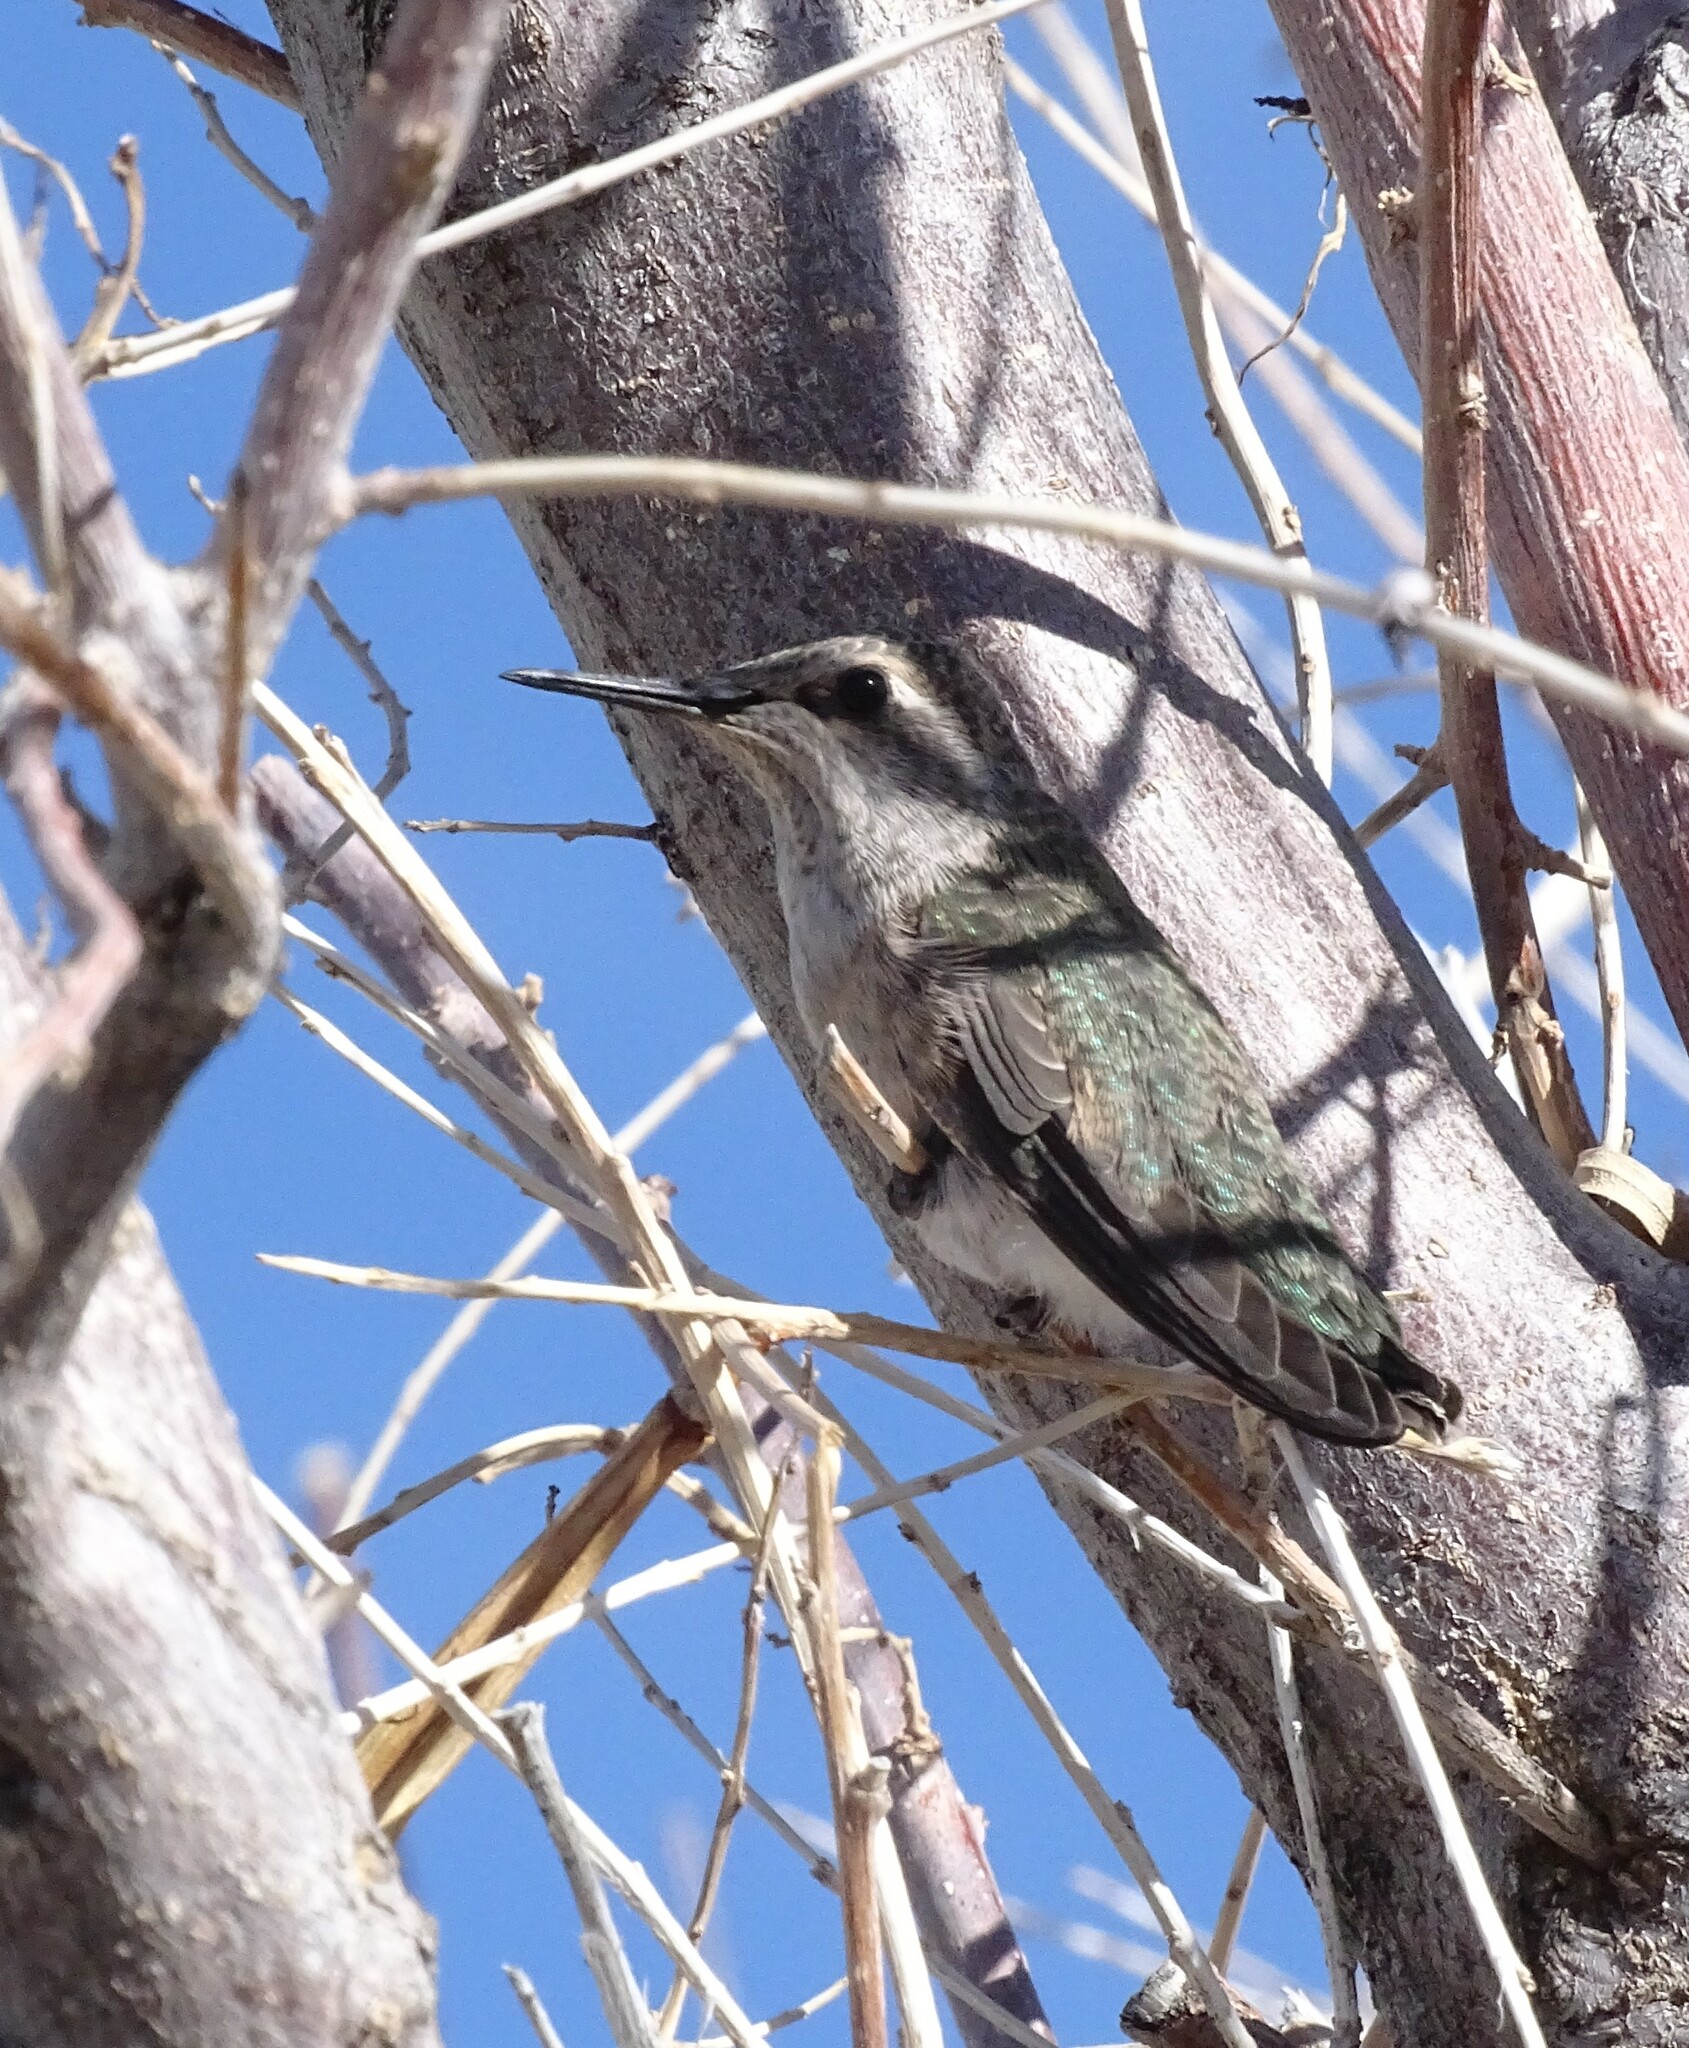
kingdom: Animalia
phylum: Chordata
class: Aves
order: Apodiformes
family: Trochilidae
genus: Calypte
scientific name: Calypte anna
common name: Anna's hummingbird
